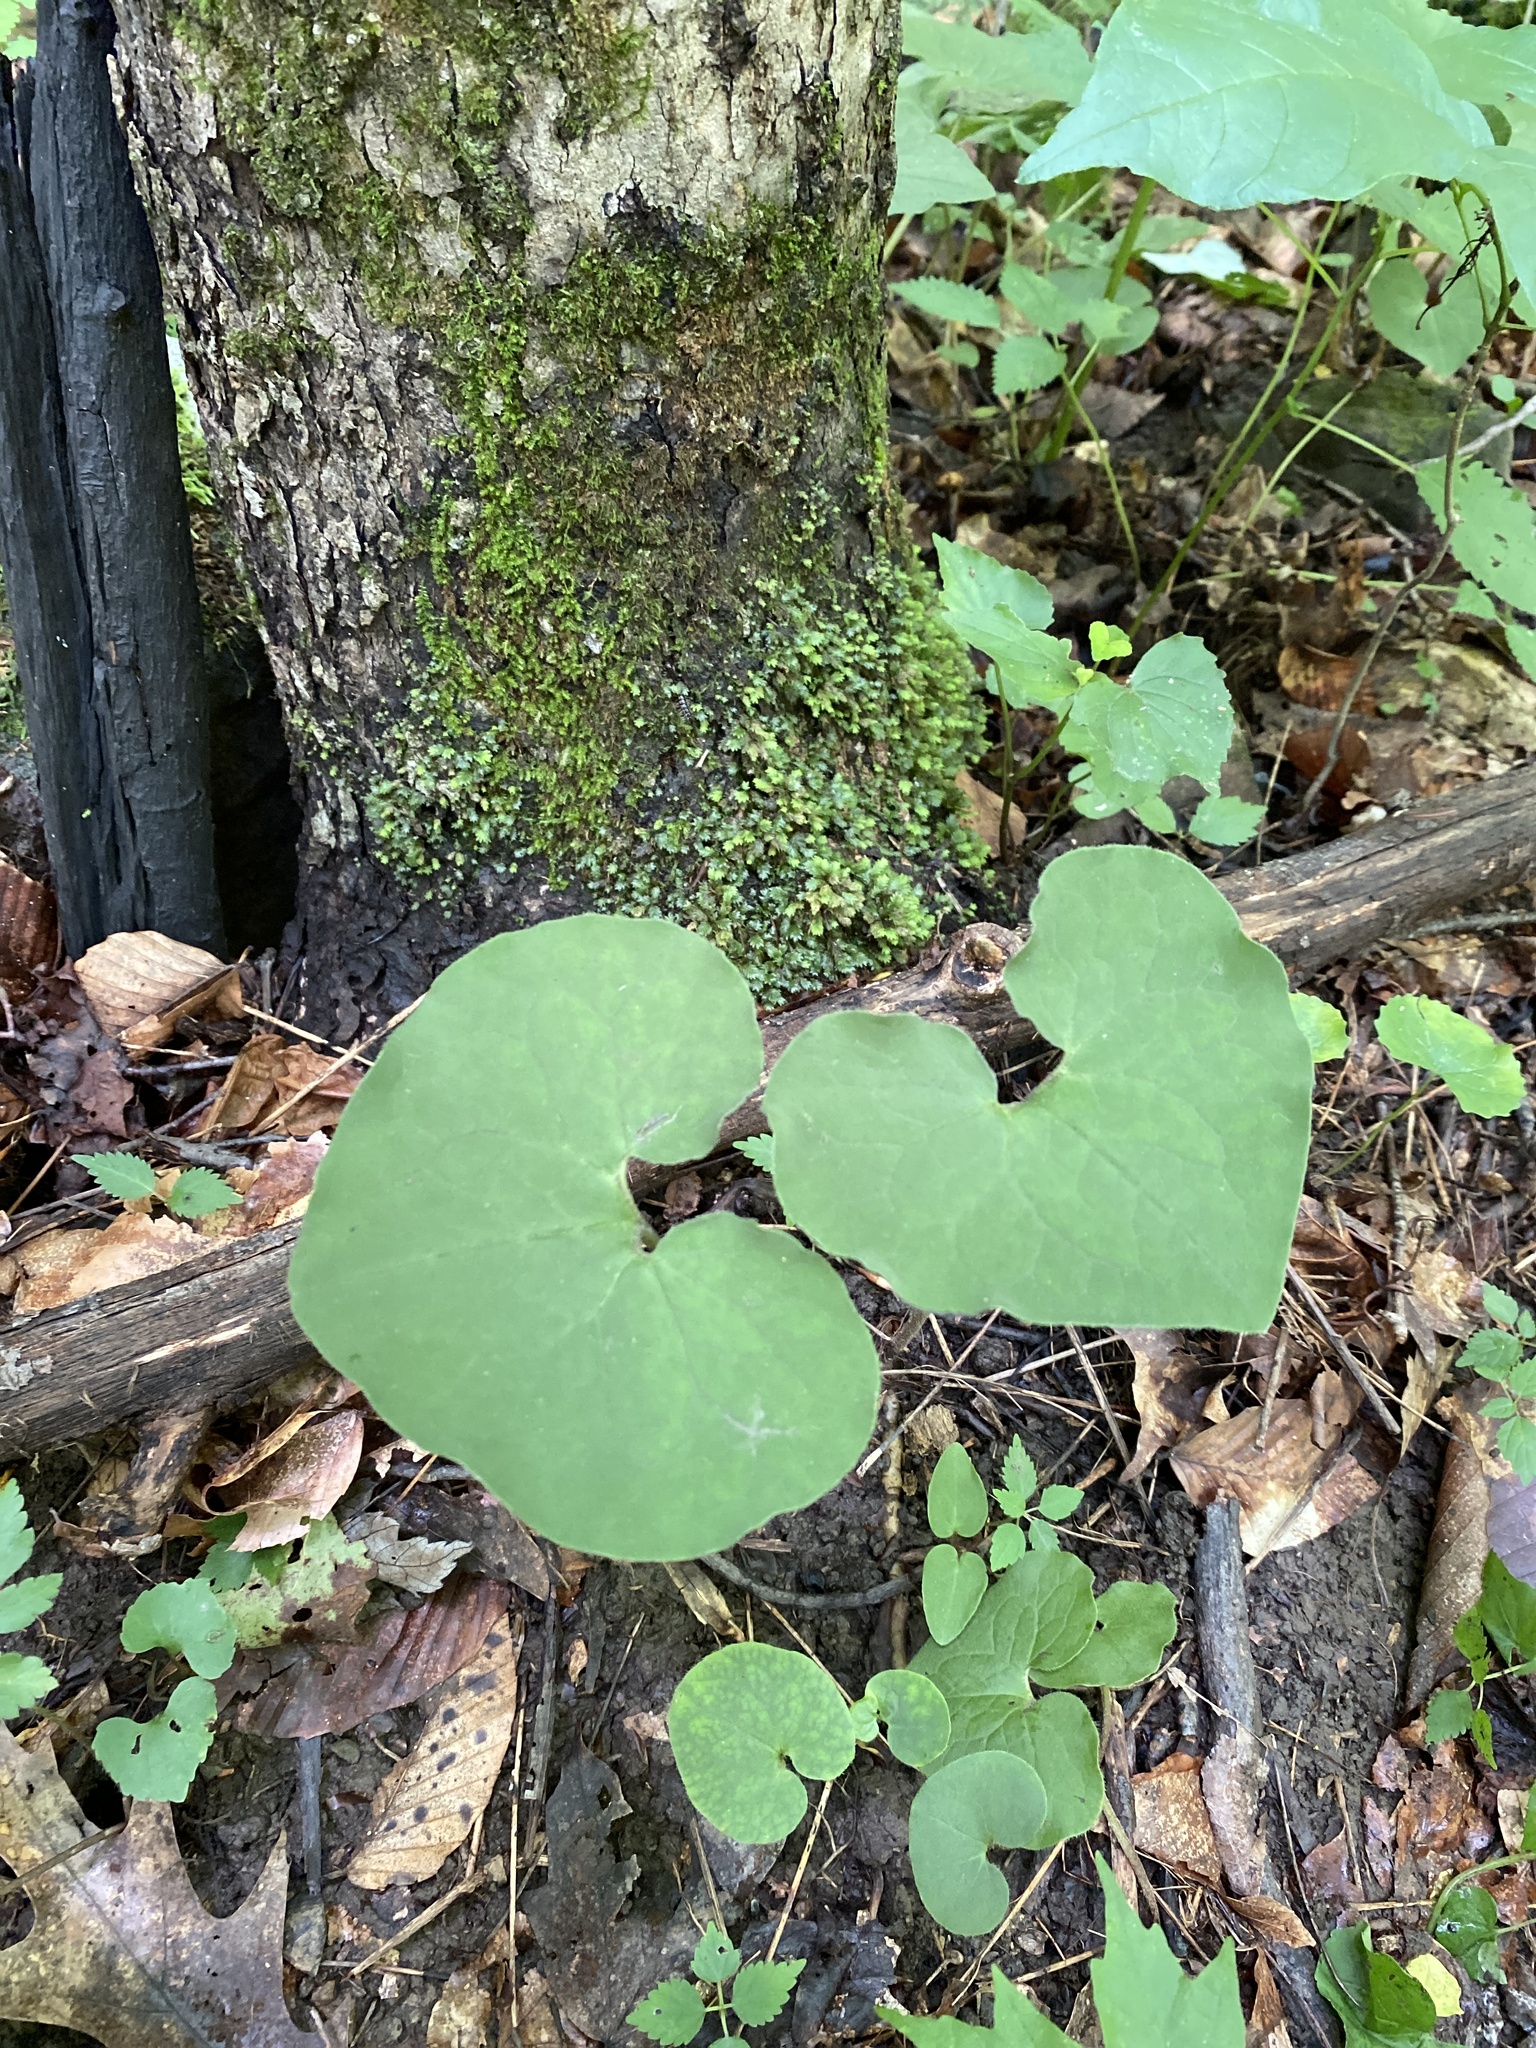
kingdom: Plantae
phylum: Tracheophyta
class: Magnoliopsida
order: Piperales
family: Aristolochiaceae
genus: Asarum
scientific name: Asarum canadense
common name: Wild ginger
